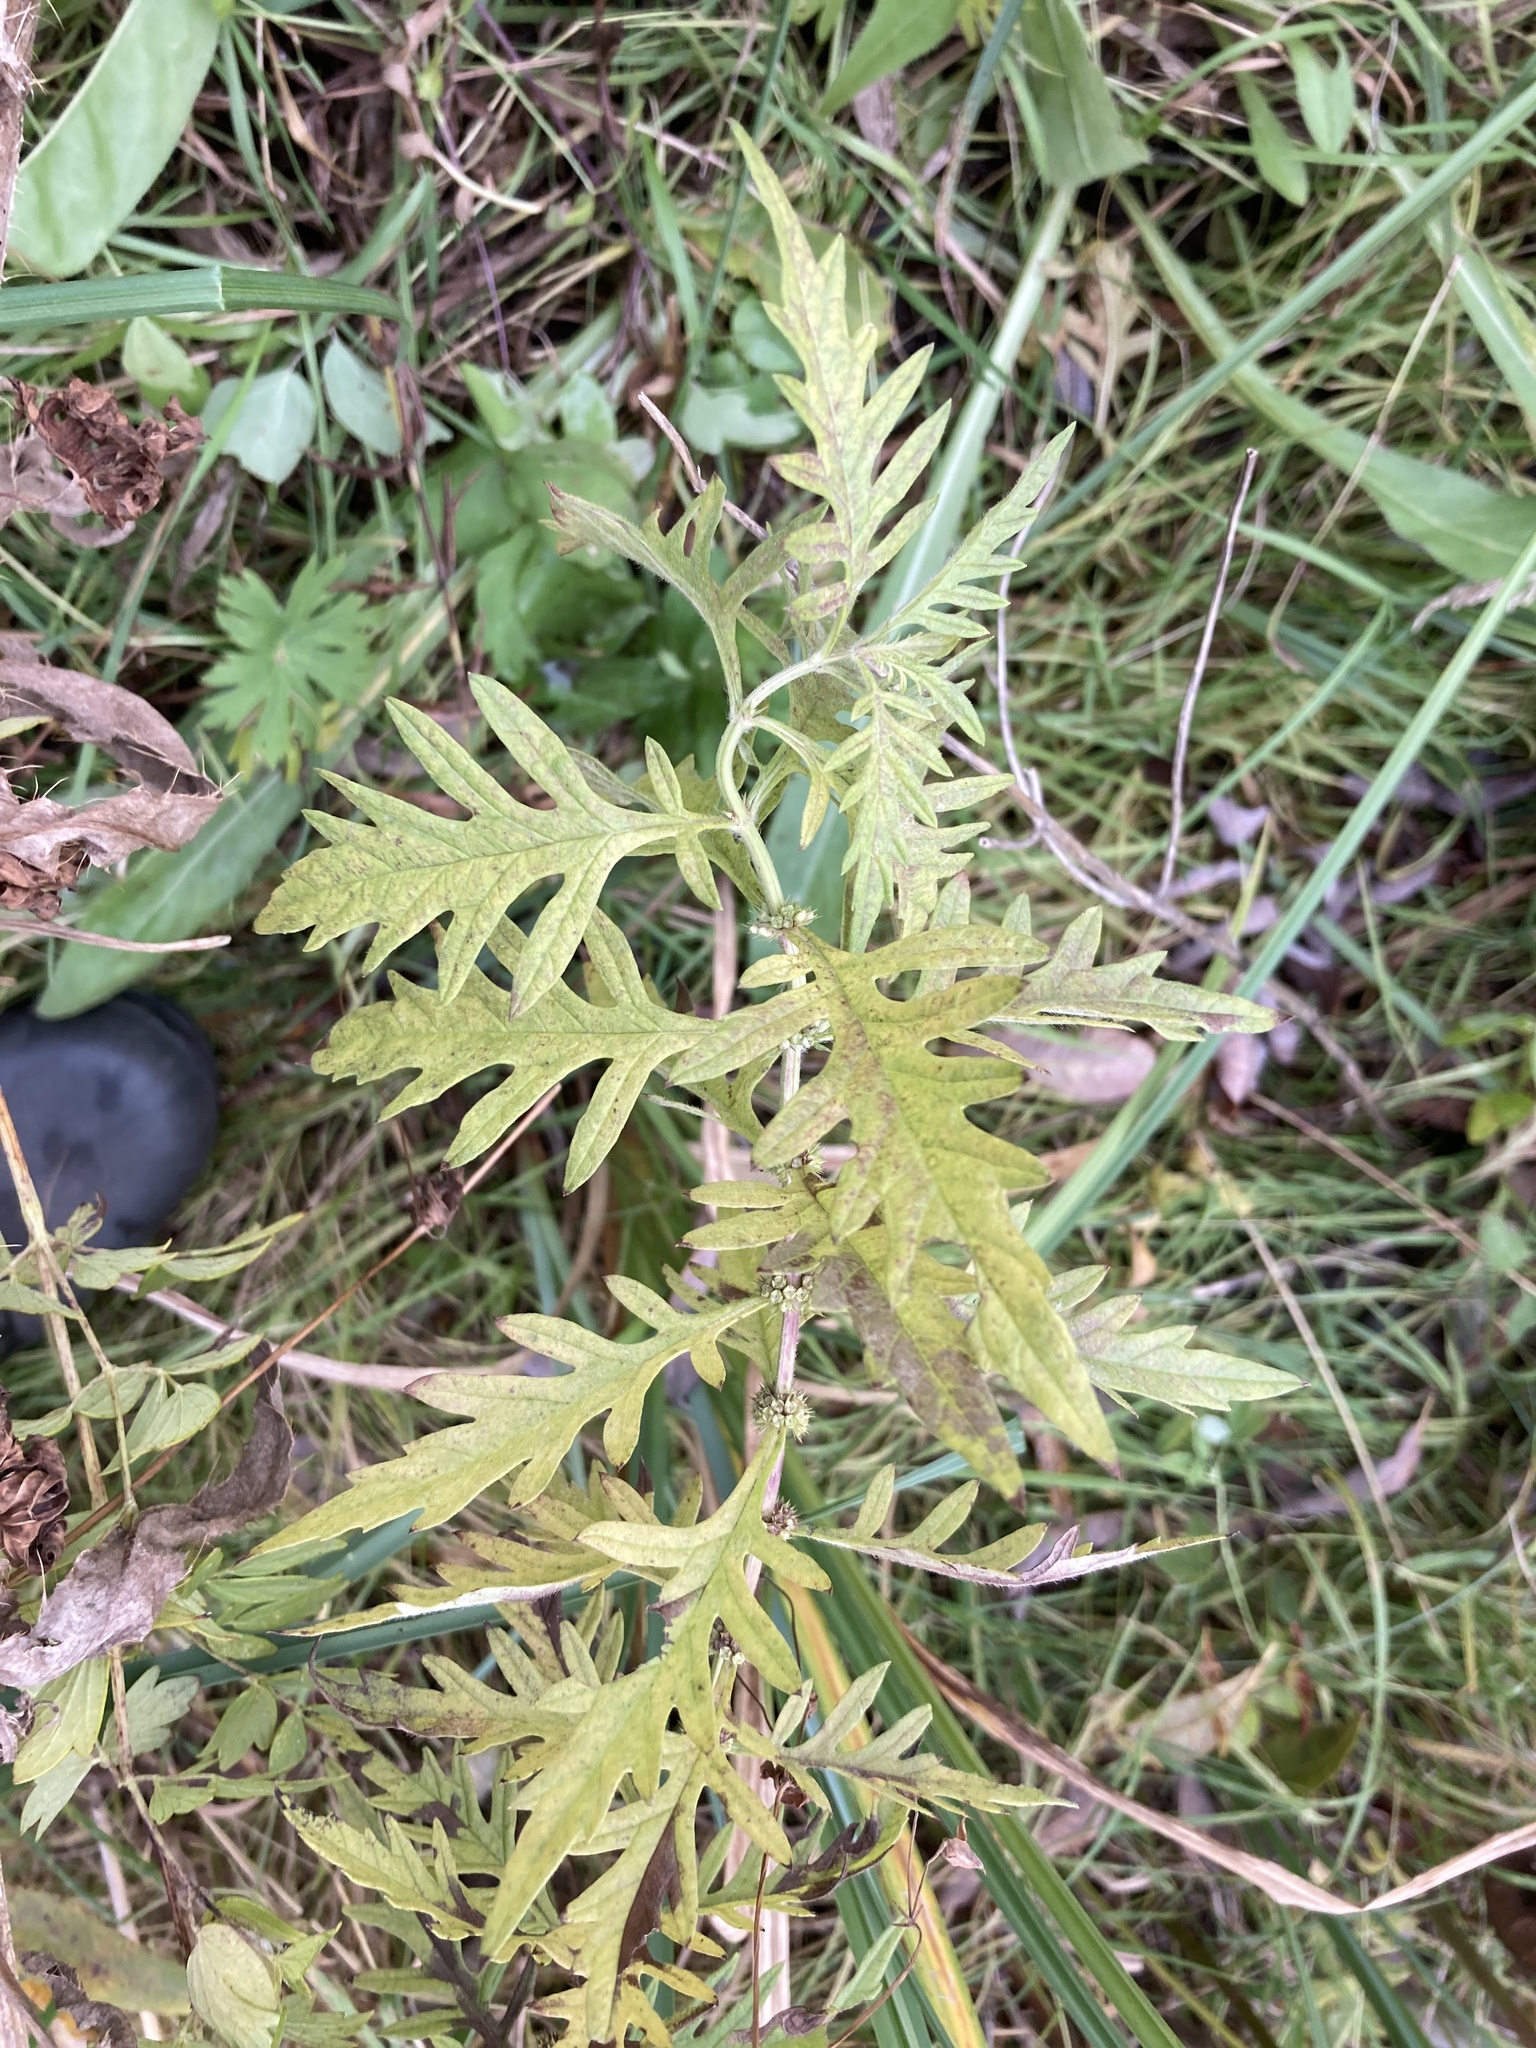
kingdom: Plantae
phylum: Tracheophyta
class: Magnoliopsida
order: Lamiales
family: Lamiaceae
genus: Lycopus
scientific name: Lycopus exaltatus
